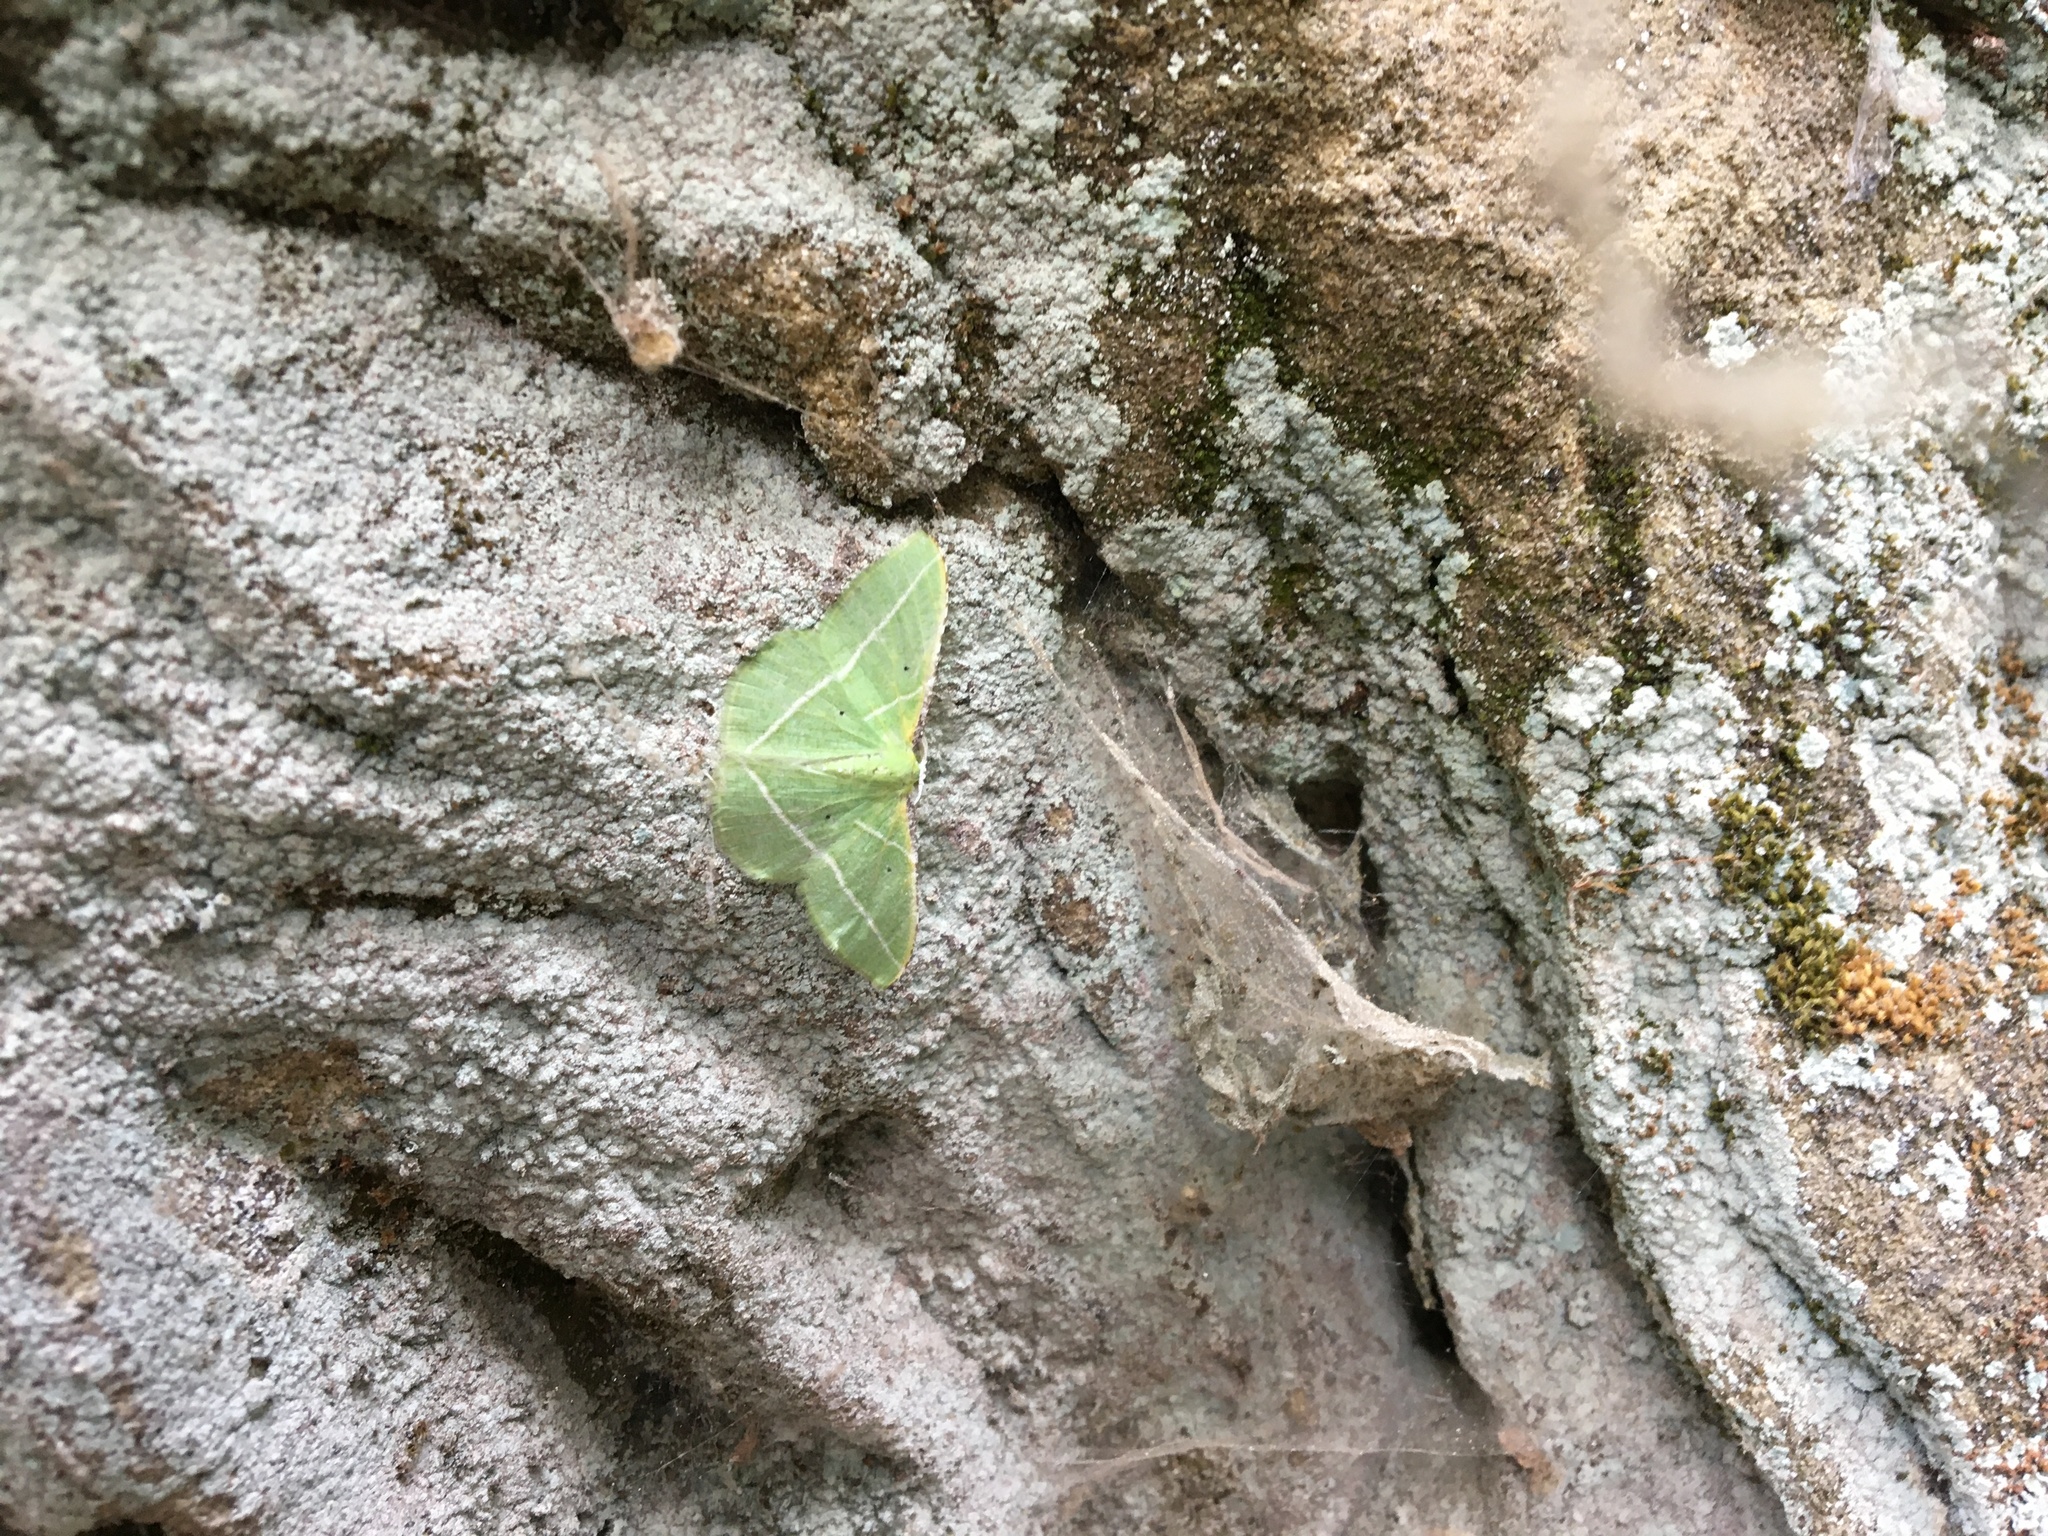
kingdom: Animalia
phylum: Arthropoda
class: Insecta
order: Lepidoptera
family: Geometridae
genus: Dichorda
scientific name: Dichorda illustraria
